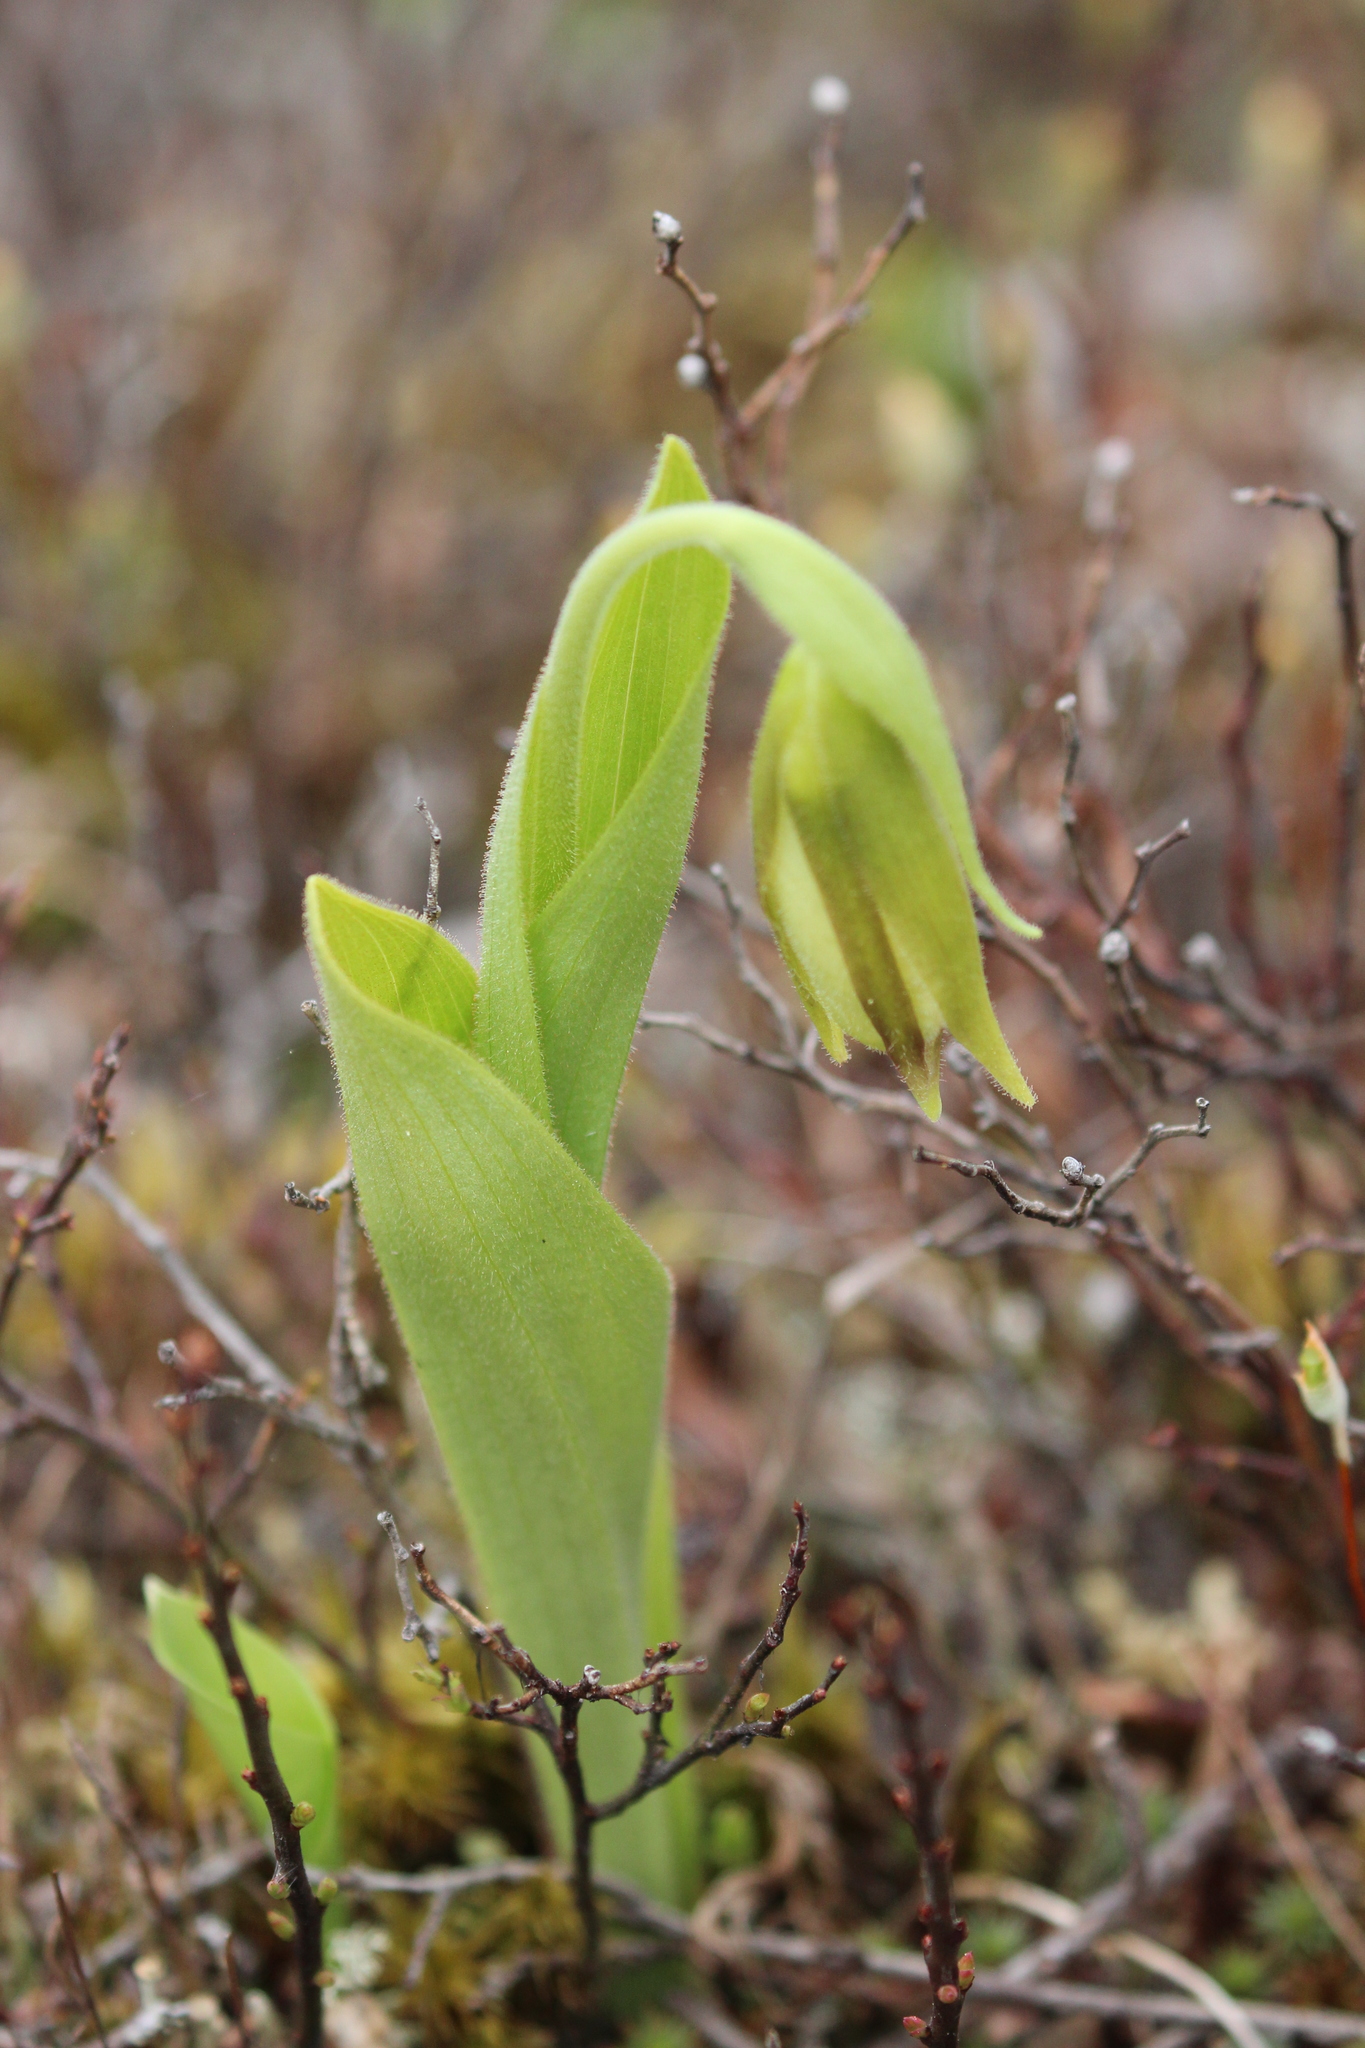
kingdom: Plantae
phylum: Tracheophyta
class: Liliopsida
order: Asparagales
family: Orchidaceae
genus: Cypripedium
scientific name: Cypripedium acaule
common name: Pink lady's-slipper
